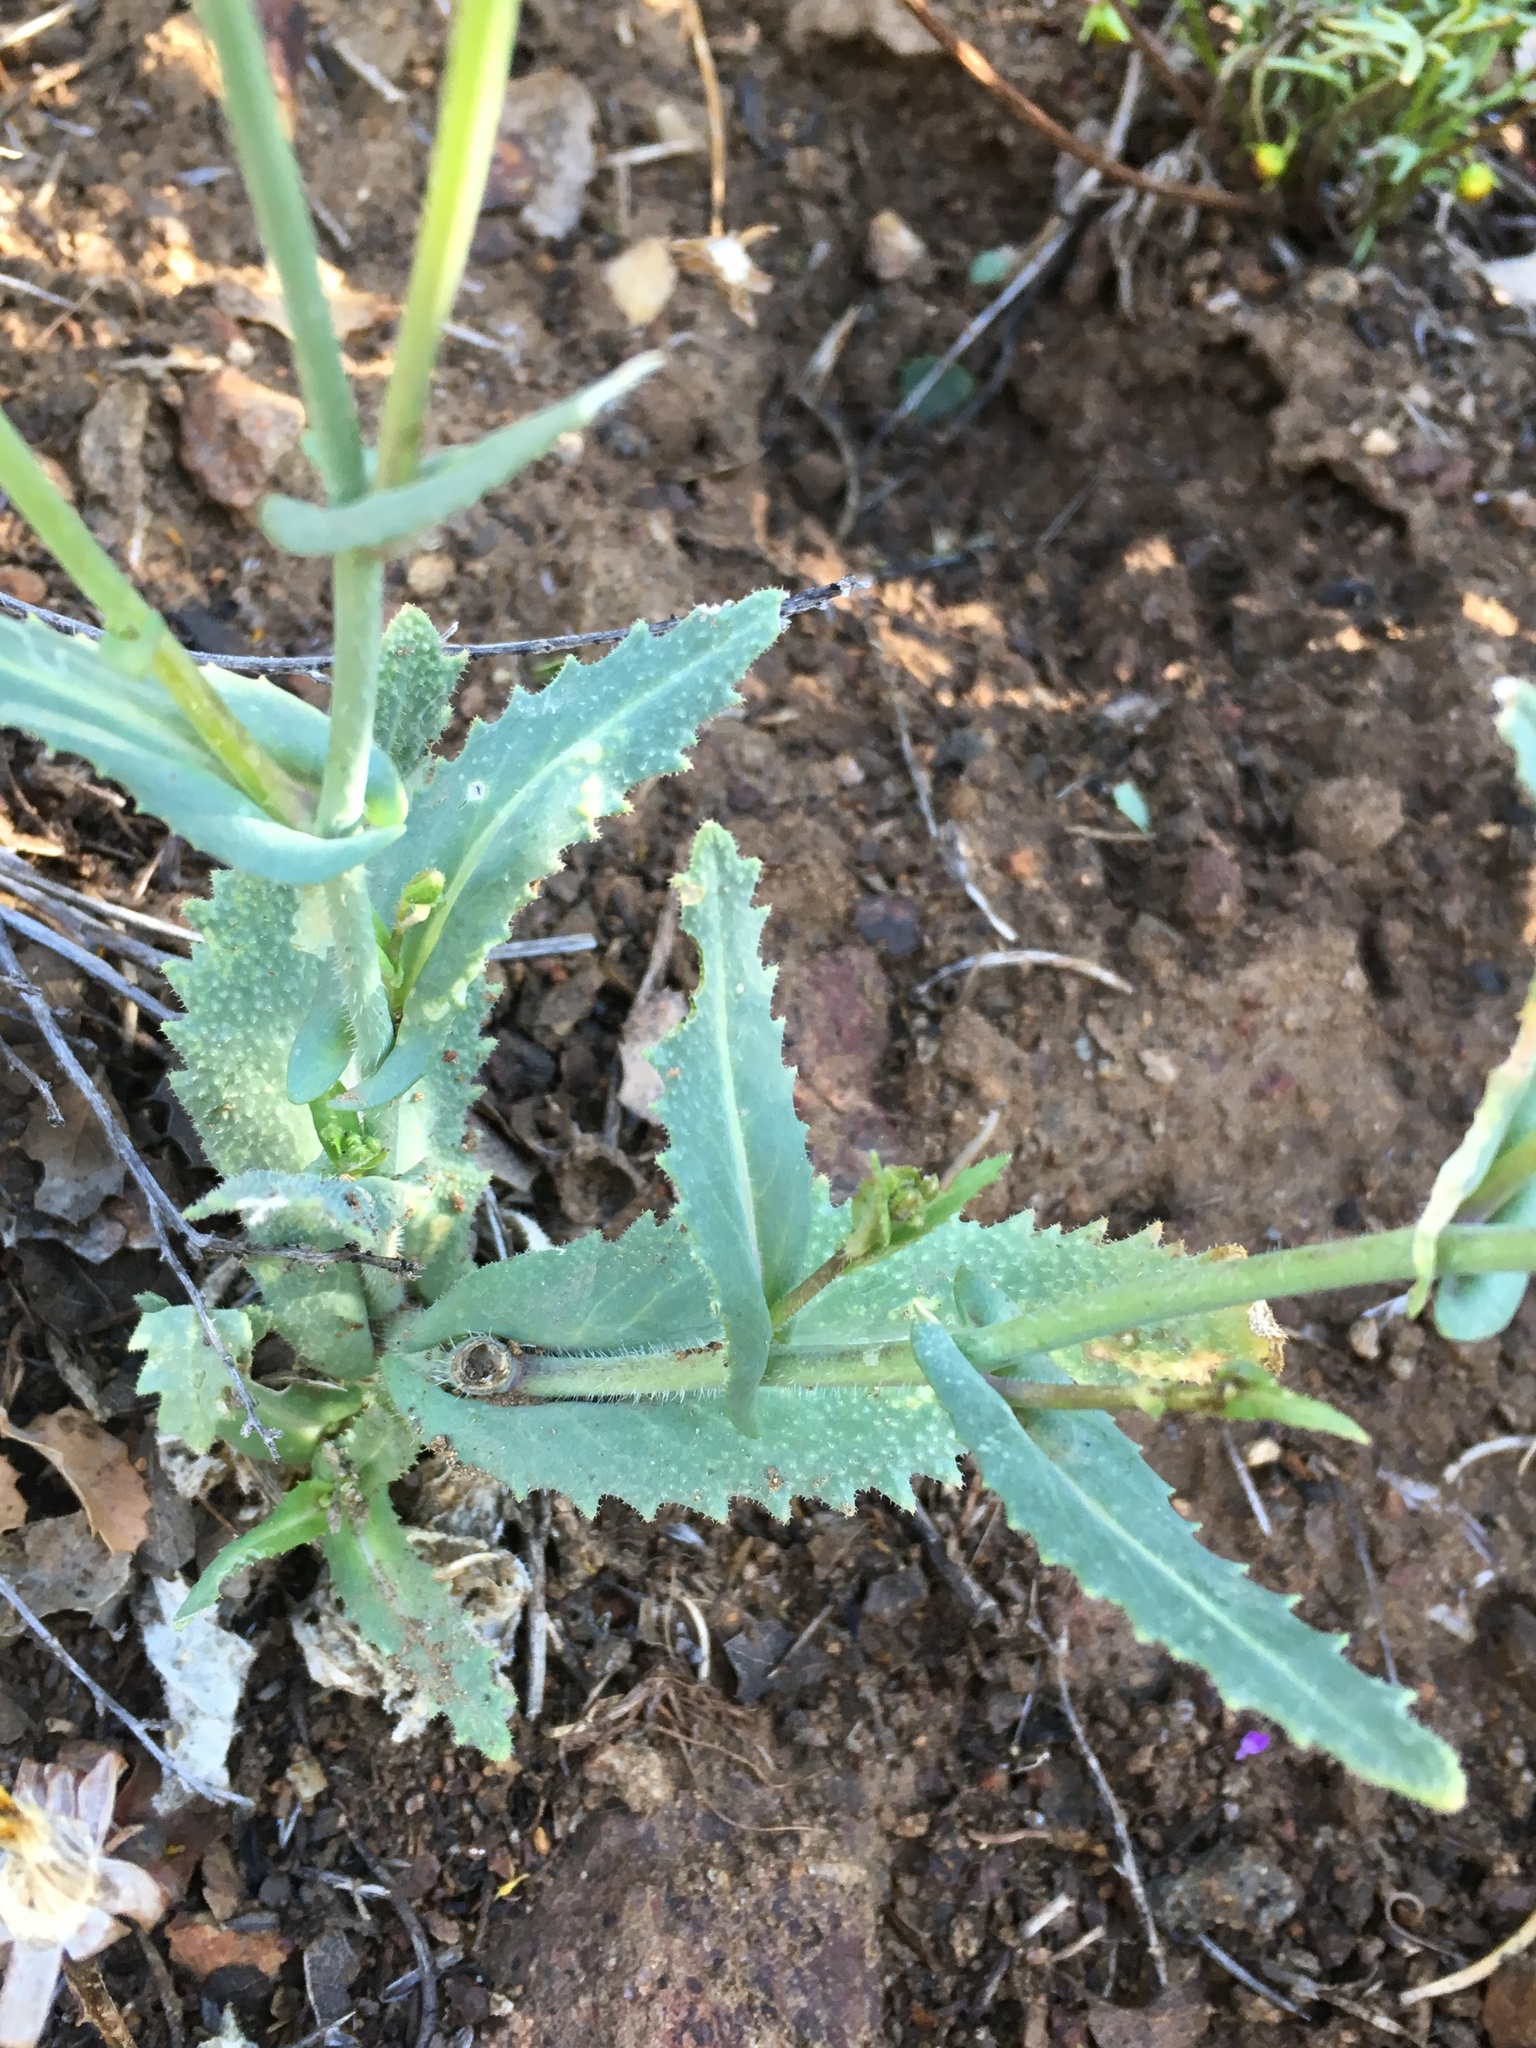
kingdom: Plantae
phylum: Tracheophyta
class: Magnoliopsida
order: Brassicales
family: Brassicaceae
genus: Streptanthus
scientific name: Streptanthus coulteri
